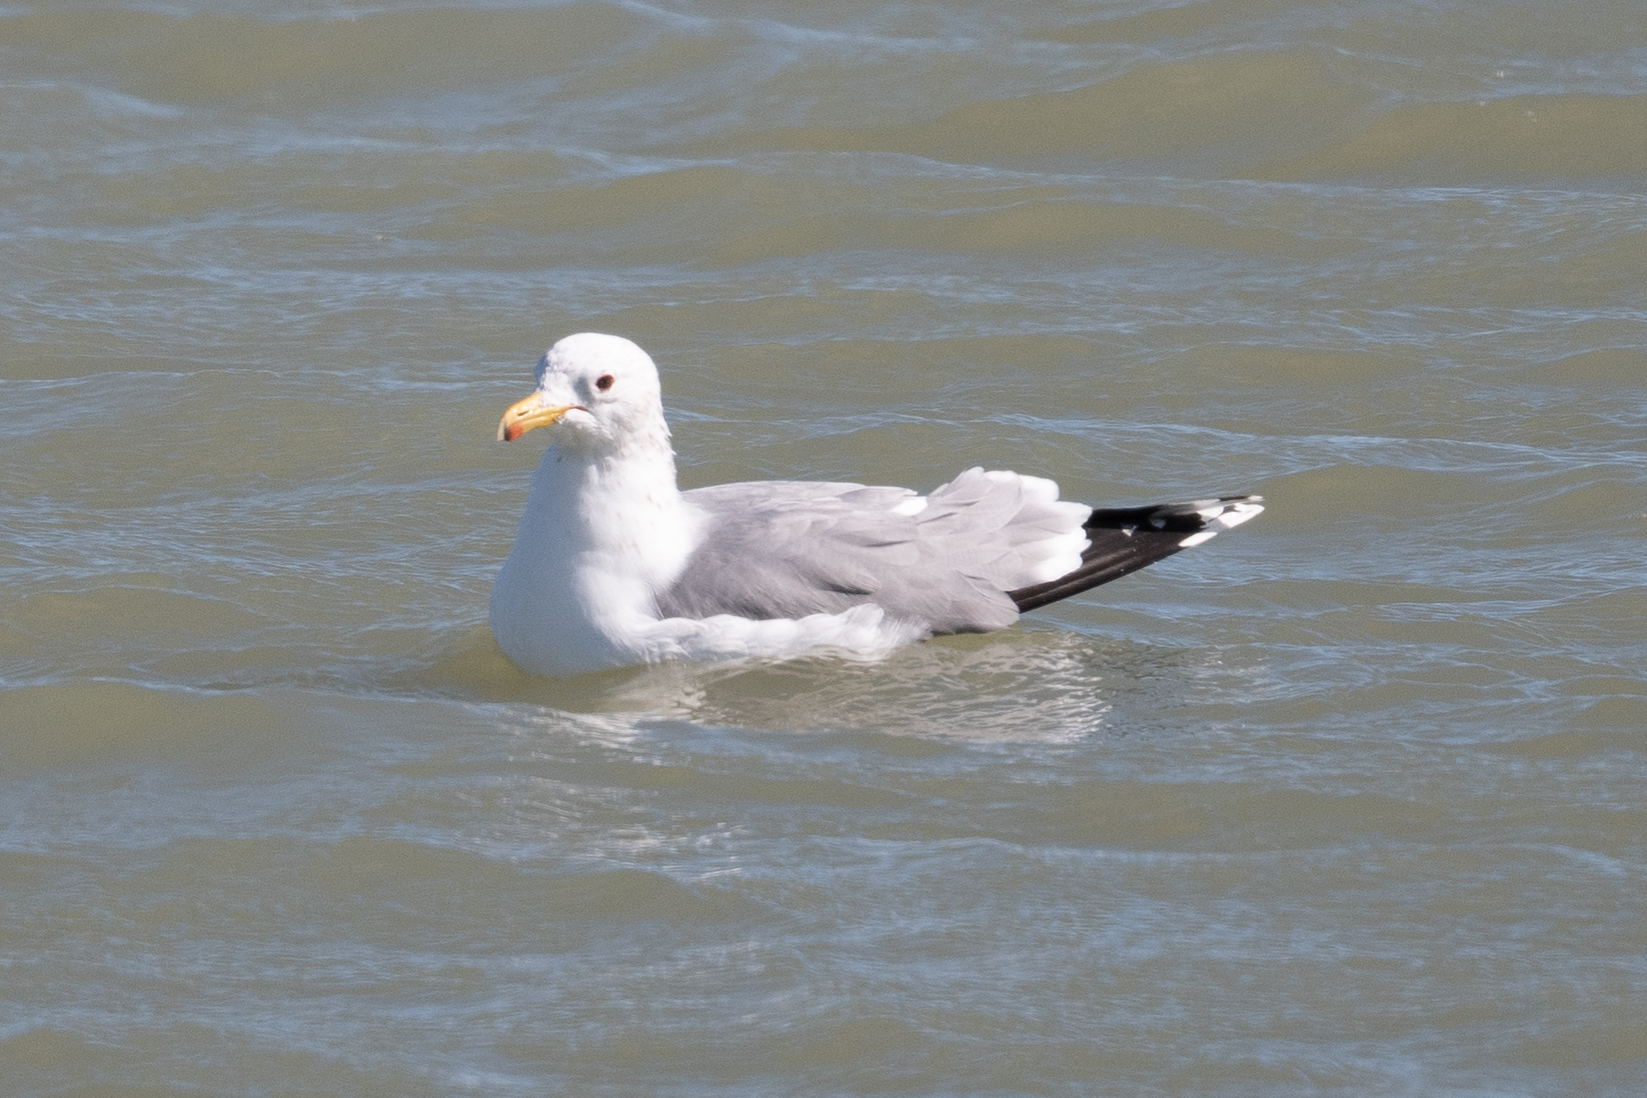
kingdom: Animalia
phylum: Chordata
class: Aves
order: Charadriiformes
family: Laridae
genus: Larus
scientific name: Larus californicus
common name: California gull
